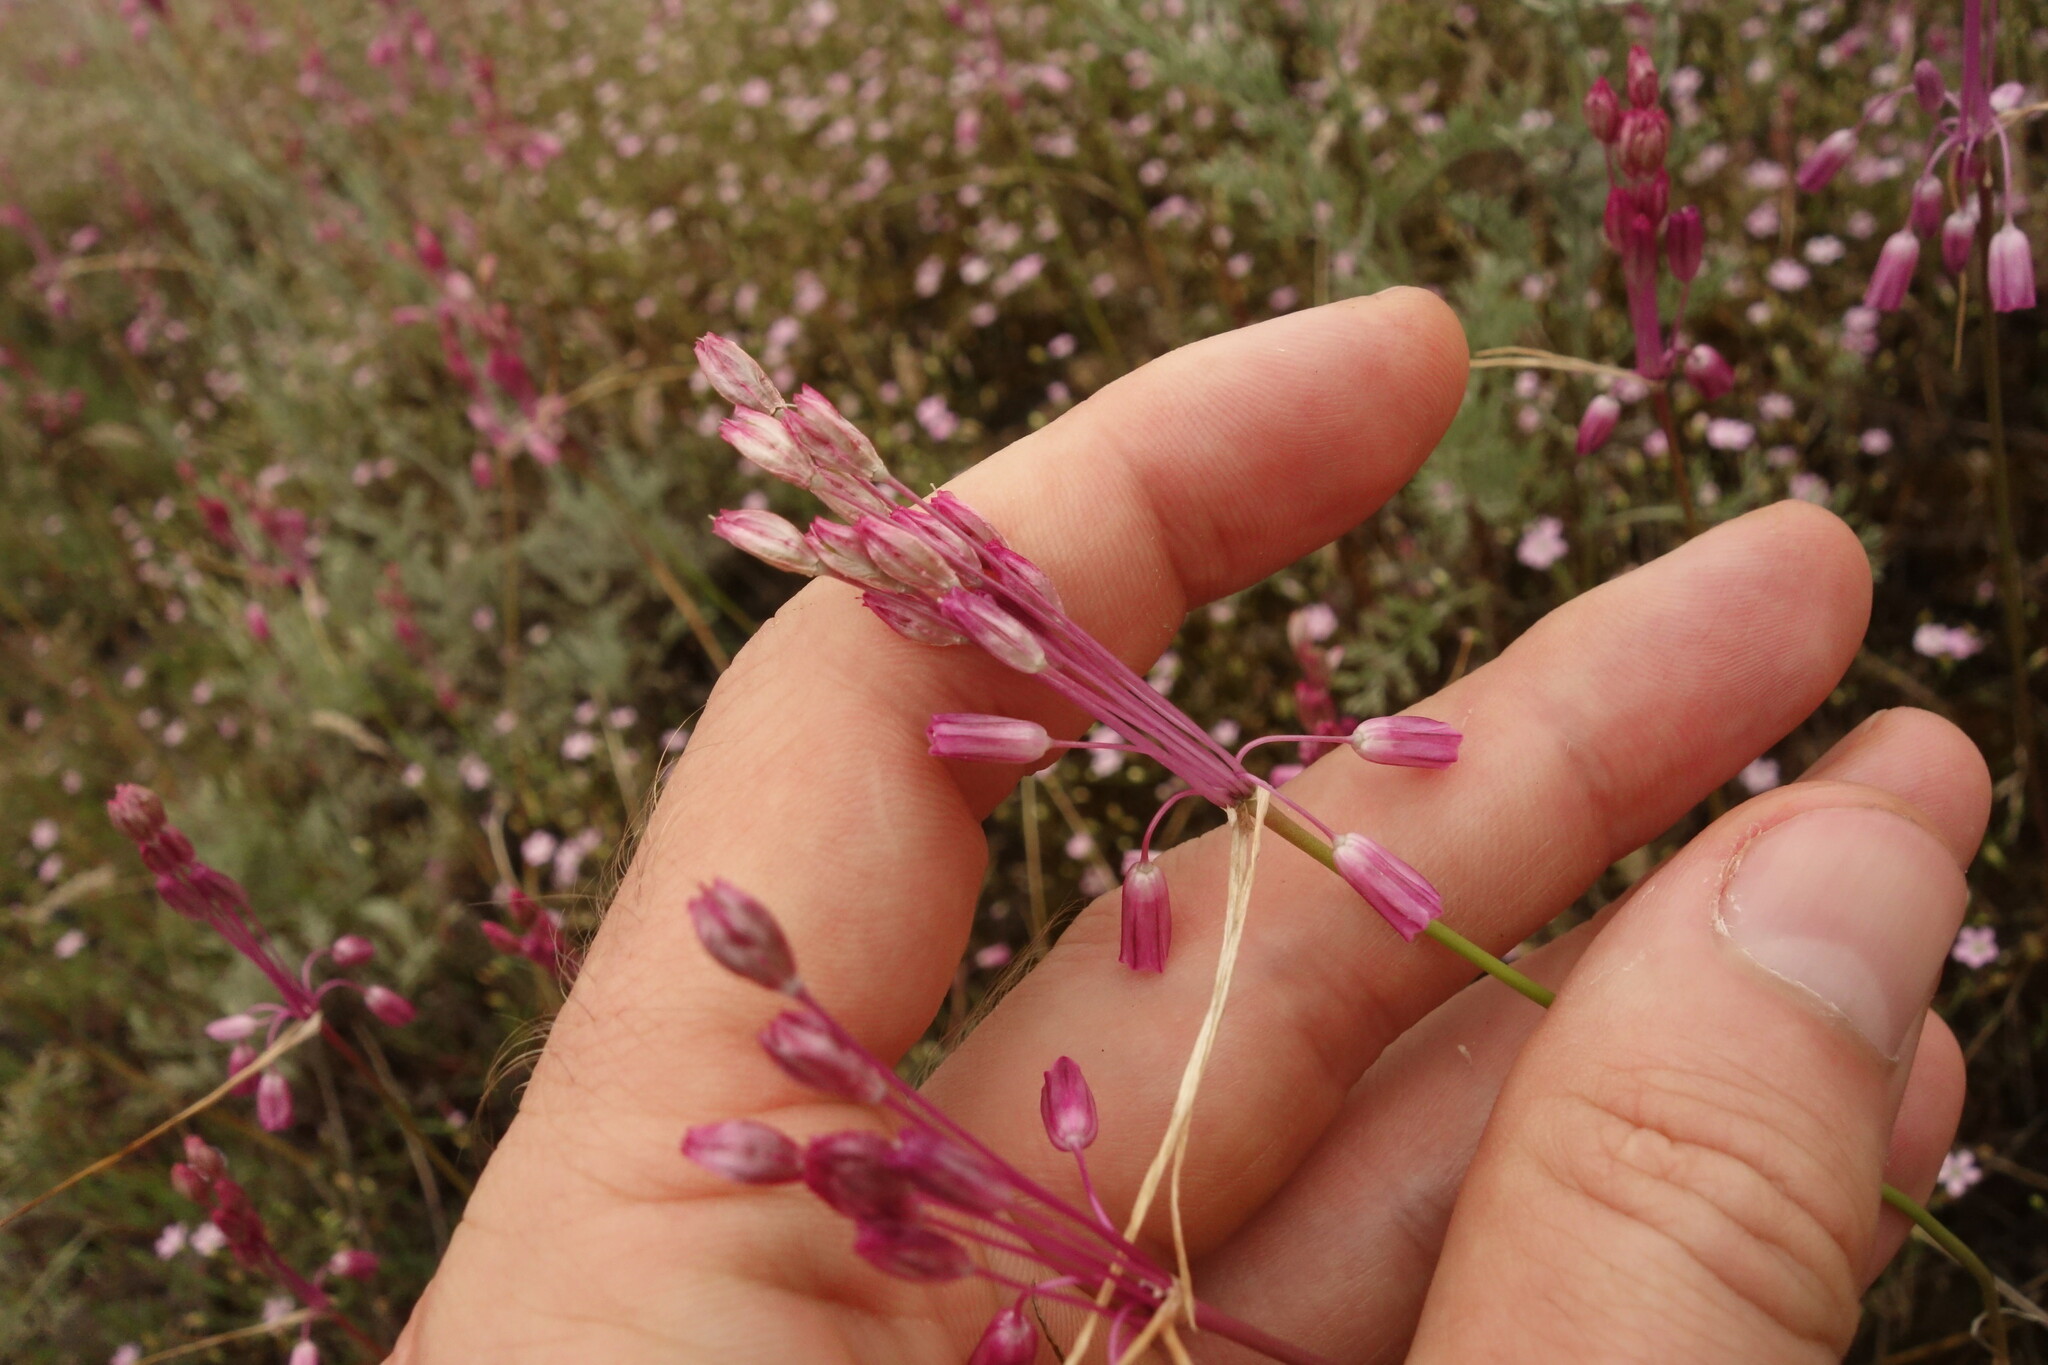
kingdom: Plantae
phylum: Tracheophyta
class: Liliopsida
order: Asparagales
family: Amaryllidaceae
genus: Allium
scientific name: Allium praescissum
